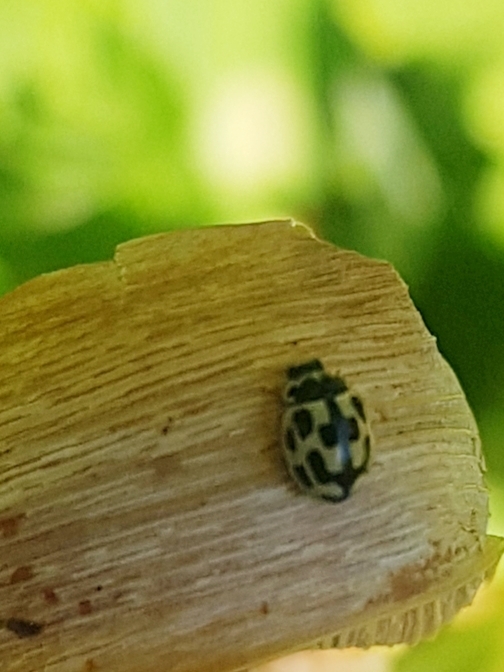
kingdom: Animalia
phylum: Arthropoda
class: Insecta
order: Coleoptera
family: Coccinellidae
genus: Propylaea
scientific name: Propylaea quatuordecimpunctata
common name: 14-spotted ladybird beetle
